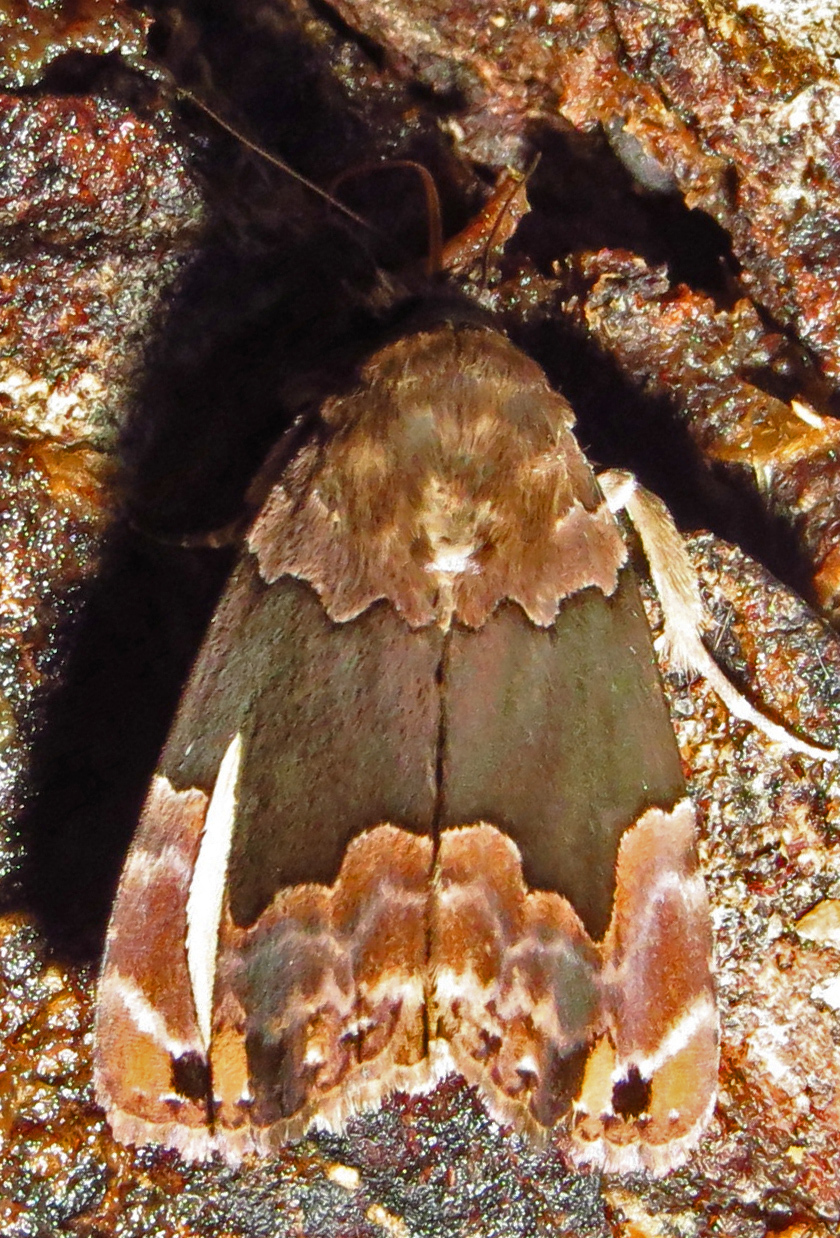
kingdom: Animalia
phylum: Arthropoda
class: Insecta
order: Lepidoptera
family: Erebidae
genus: Dinumma
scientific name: Dinumma deponens
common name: Purplish moth
